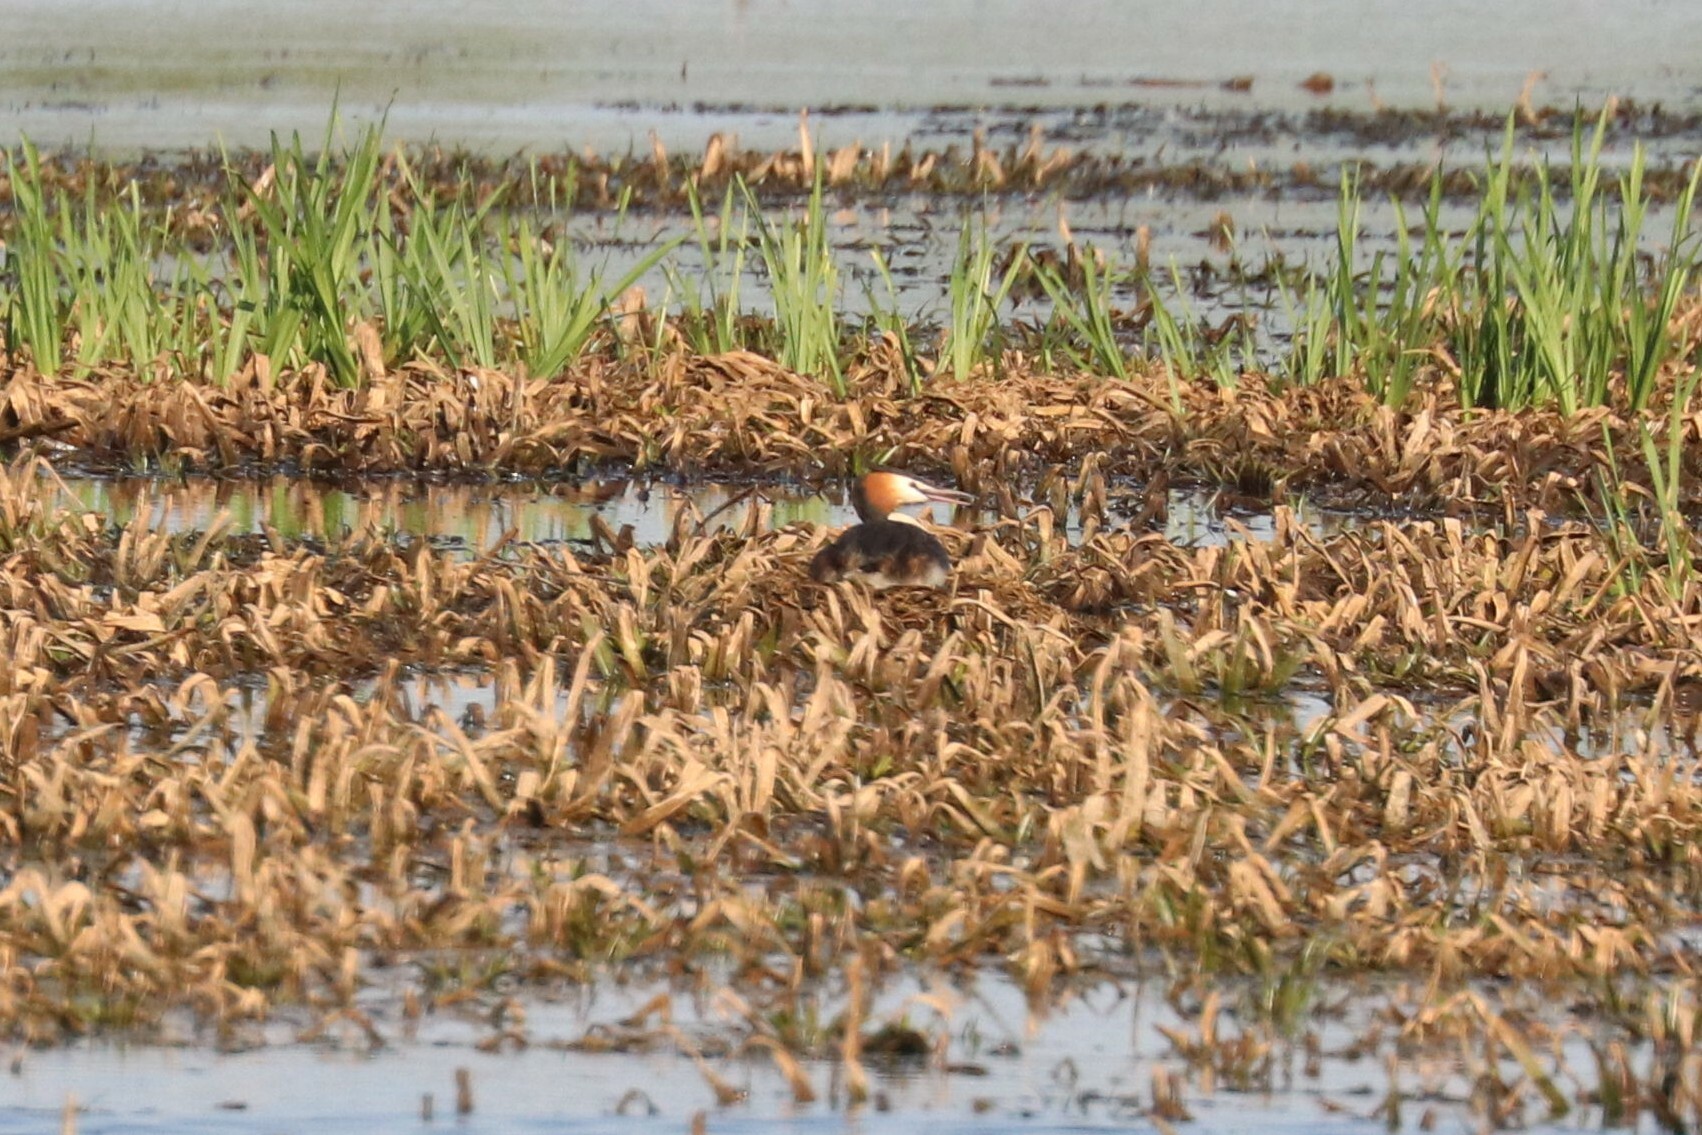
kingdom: Animalia
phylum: Chordata
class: Aves
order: Podicipediformes
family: Podicipedidae
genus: Podiceps
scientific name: Podiceps cristatus
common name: Great crested grebe
